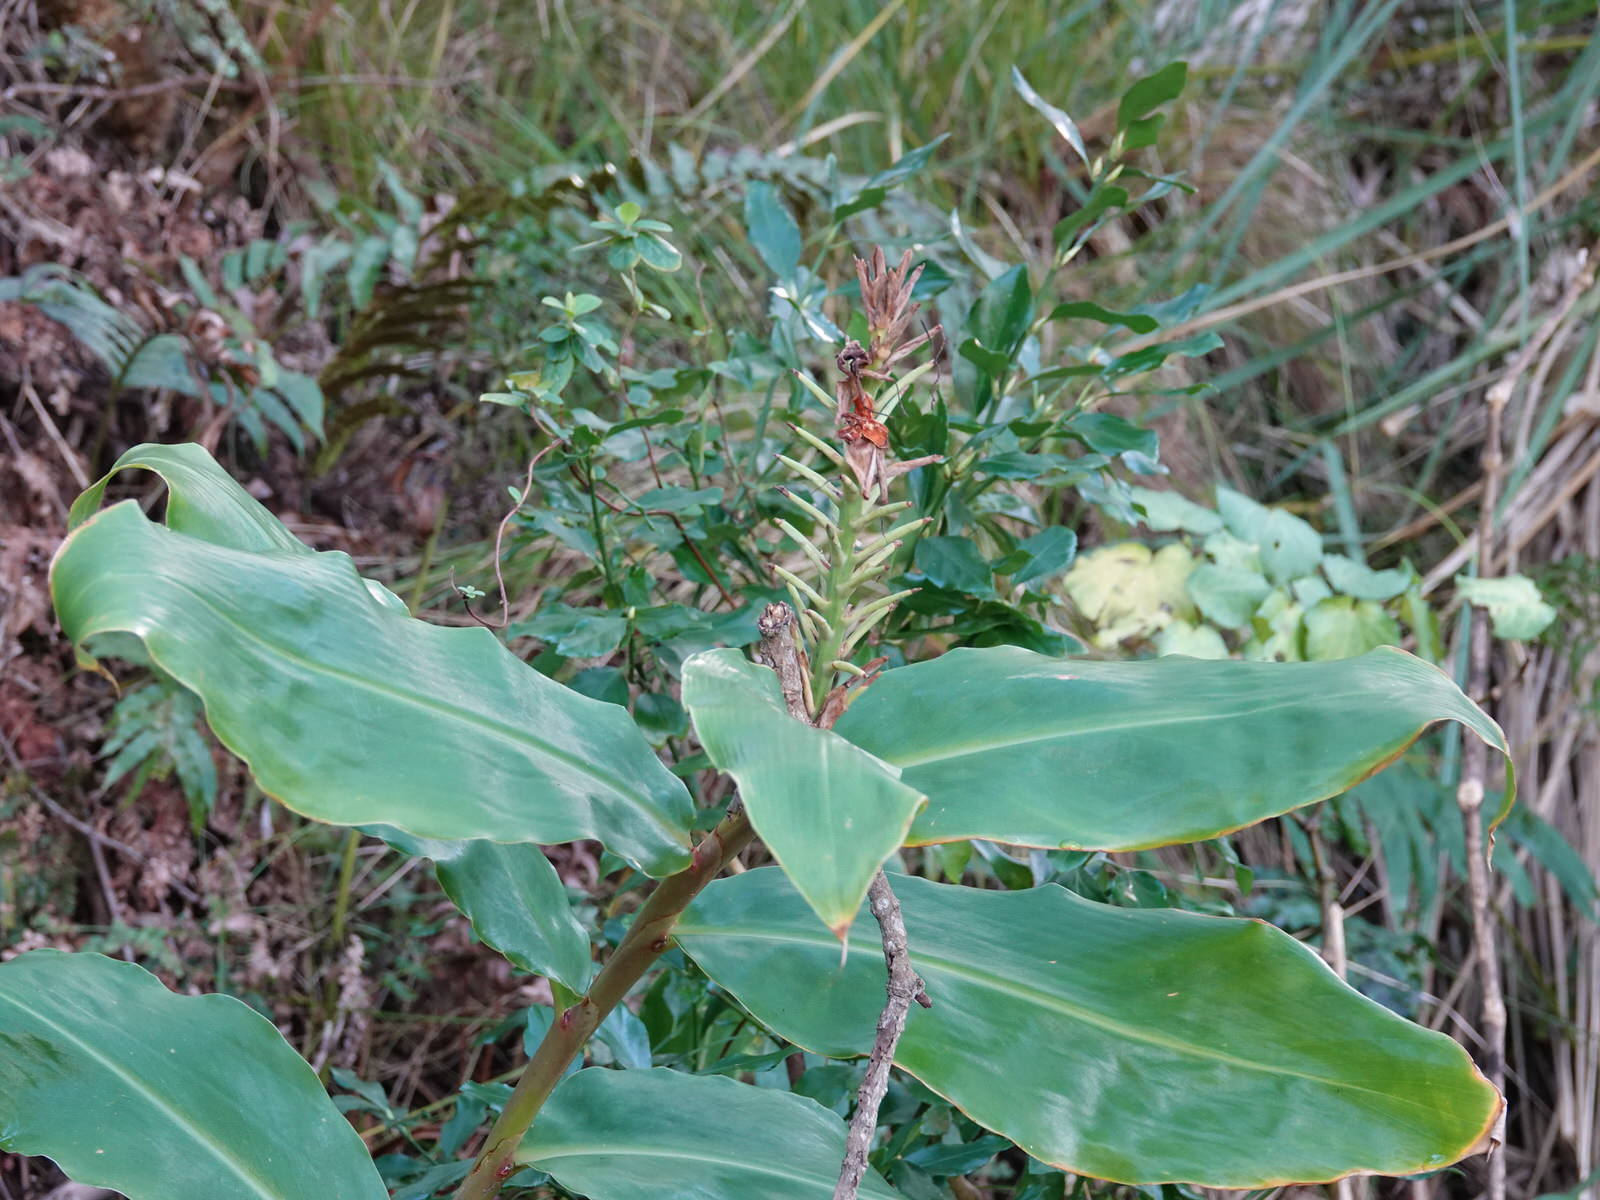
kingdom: Plantae
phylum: Tracheophyta
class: Liliopsida
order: Zingiberales
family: Zingiberaceae
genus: Hedychium
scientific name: Hedychium gardnerianum
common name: Himalayan ginger
